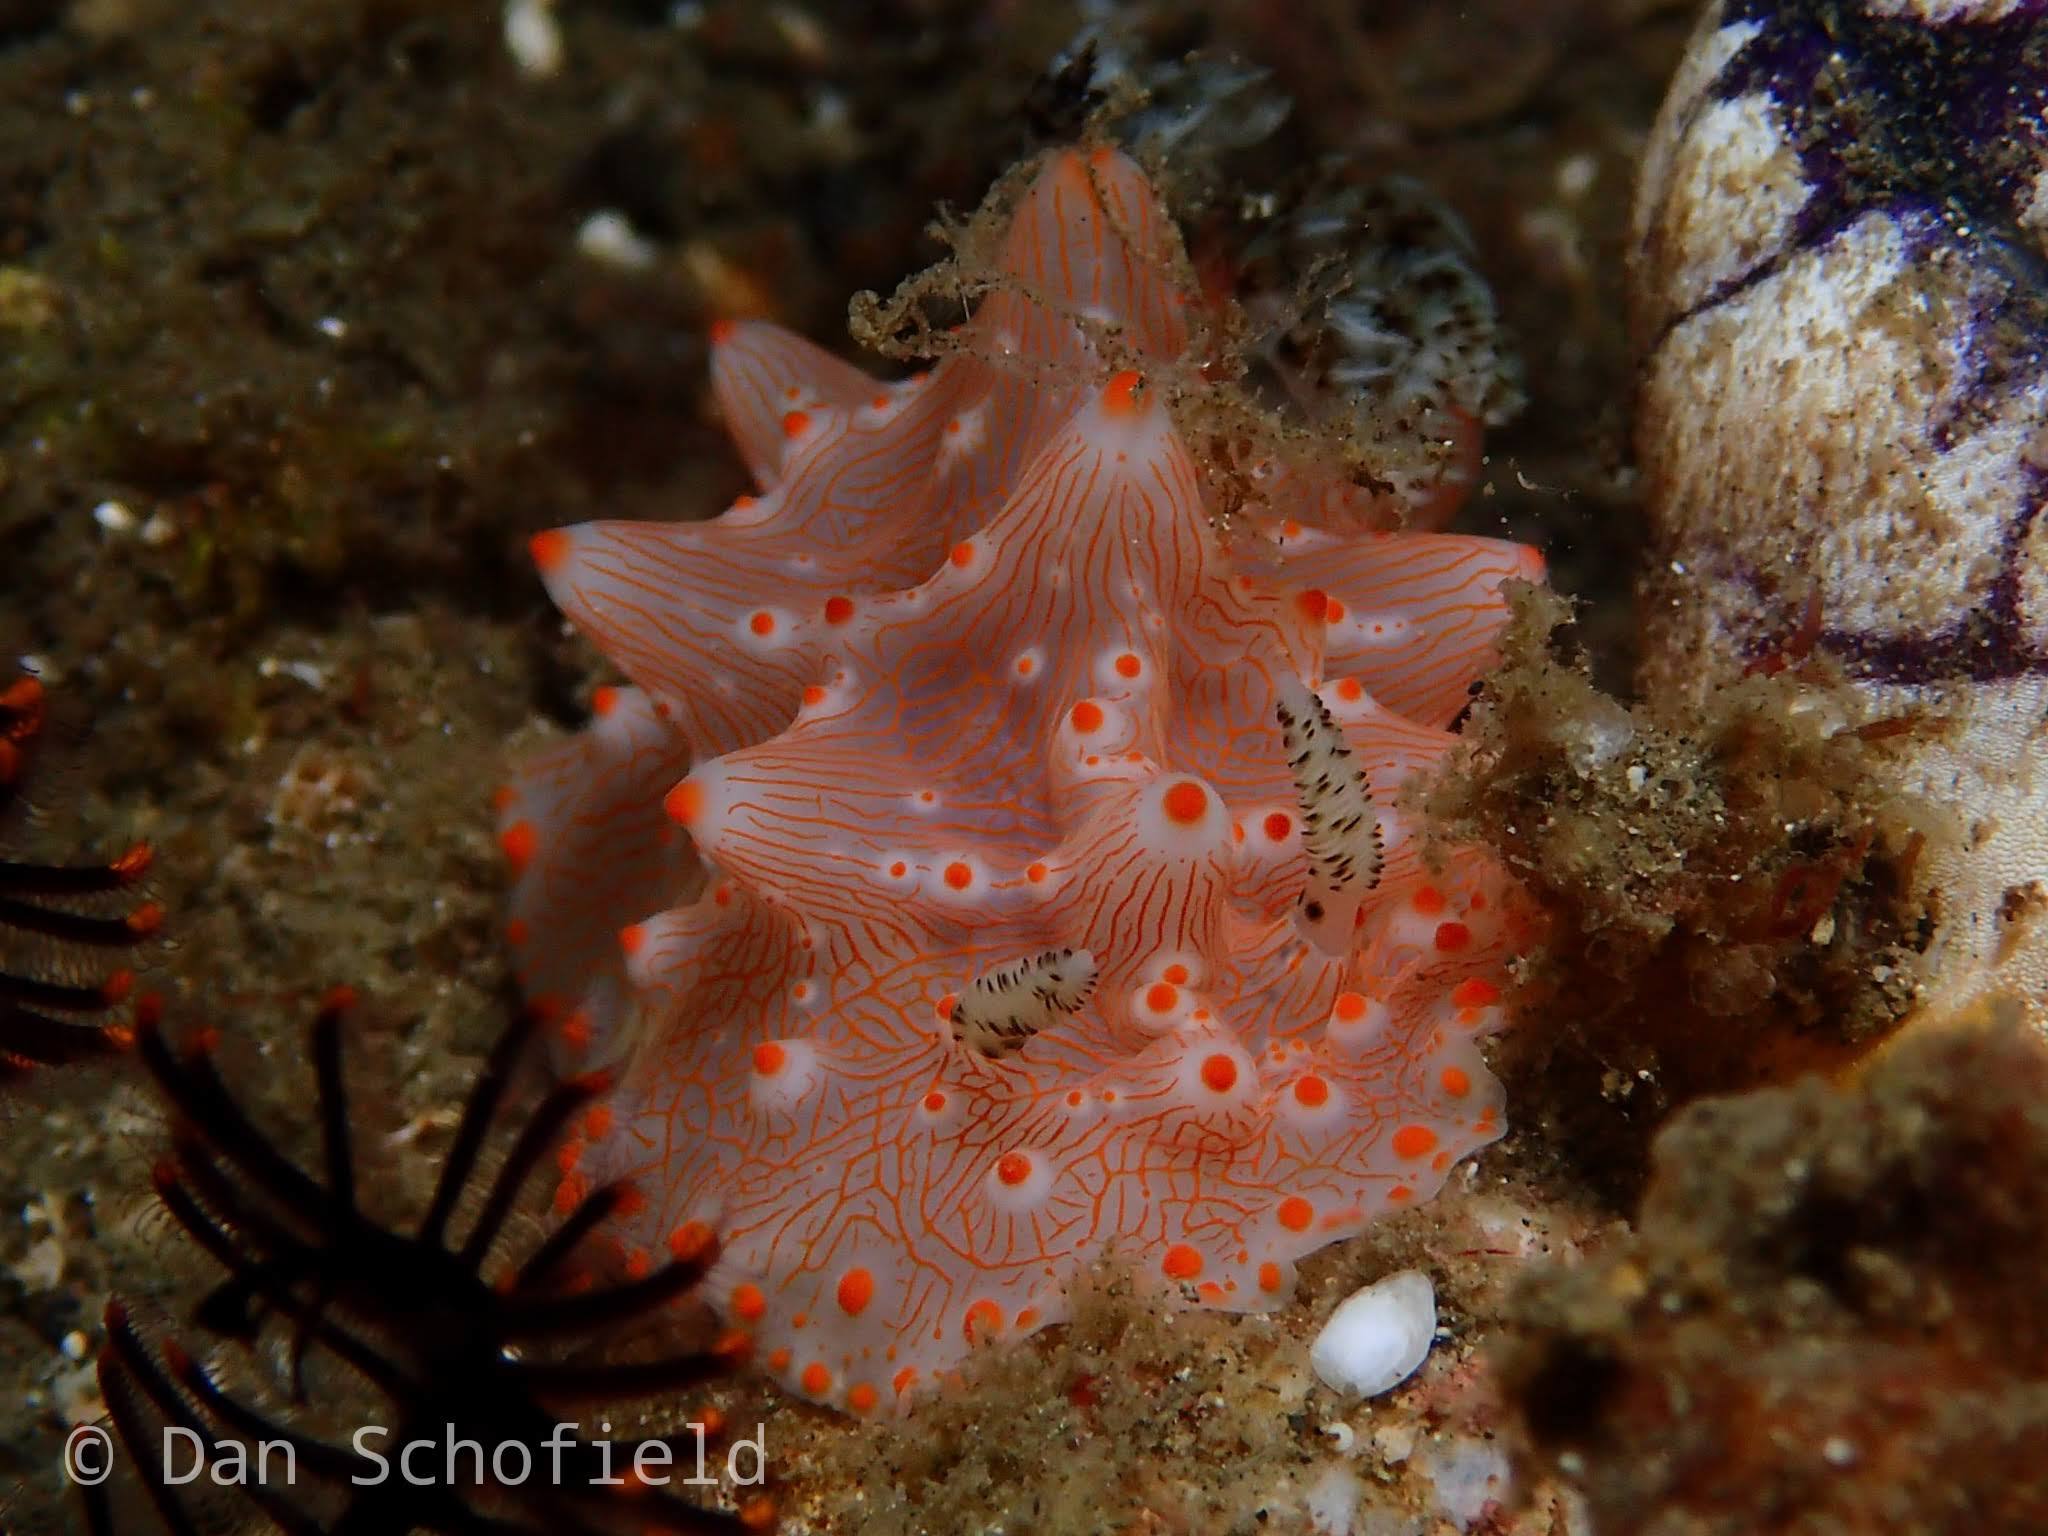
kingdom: Animalia
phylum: Mollusca
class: Gastropoda
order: Nudibranchia
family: Discodorididae
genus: Halgerda
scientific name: Halgerda batangas
